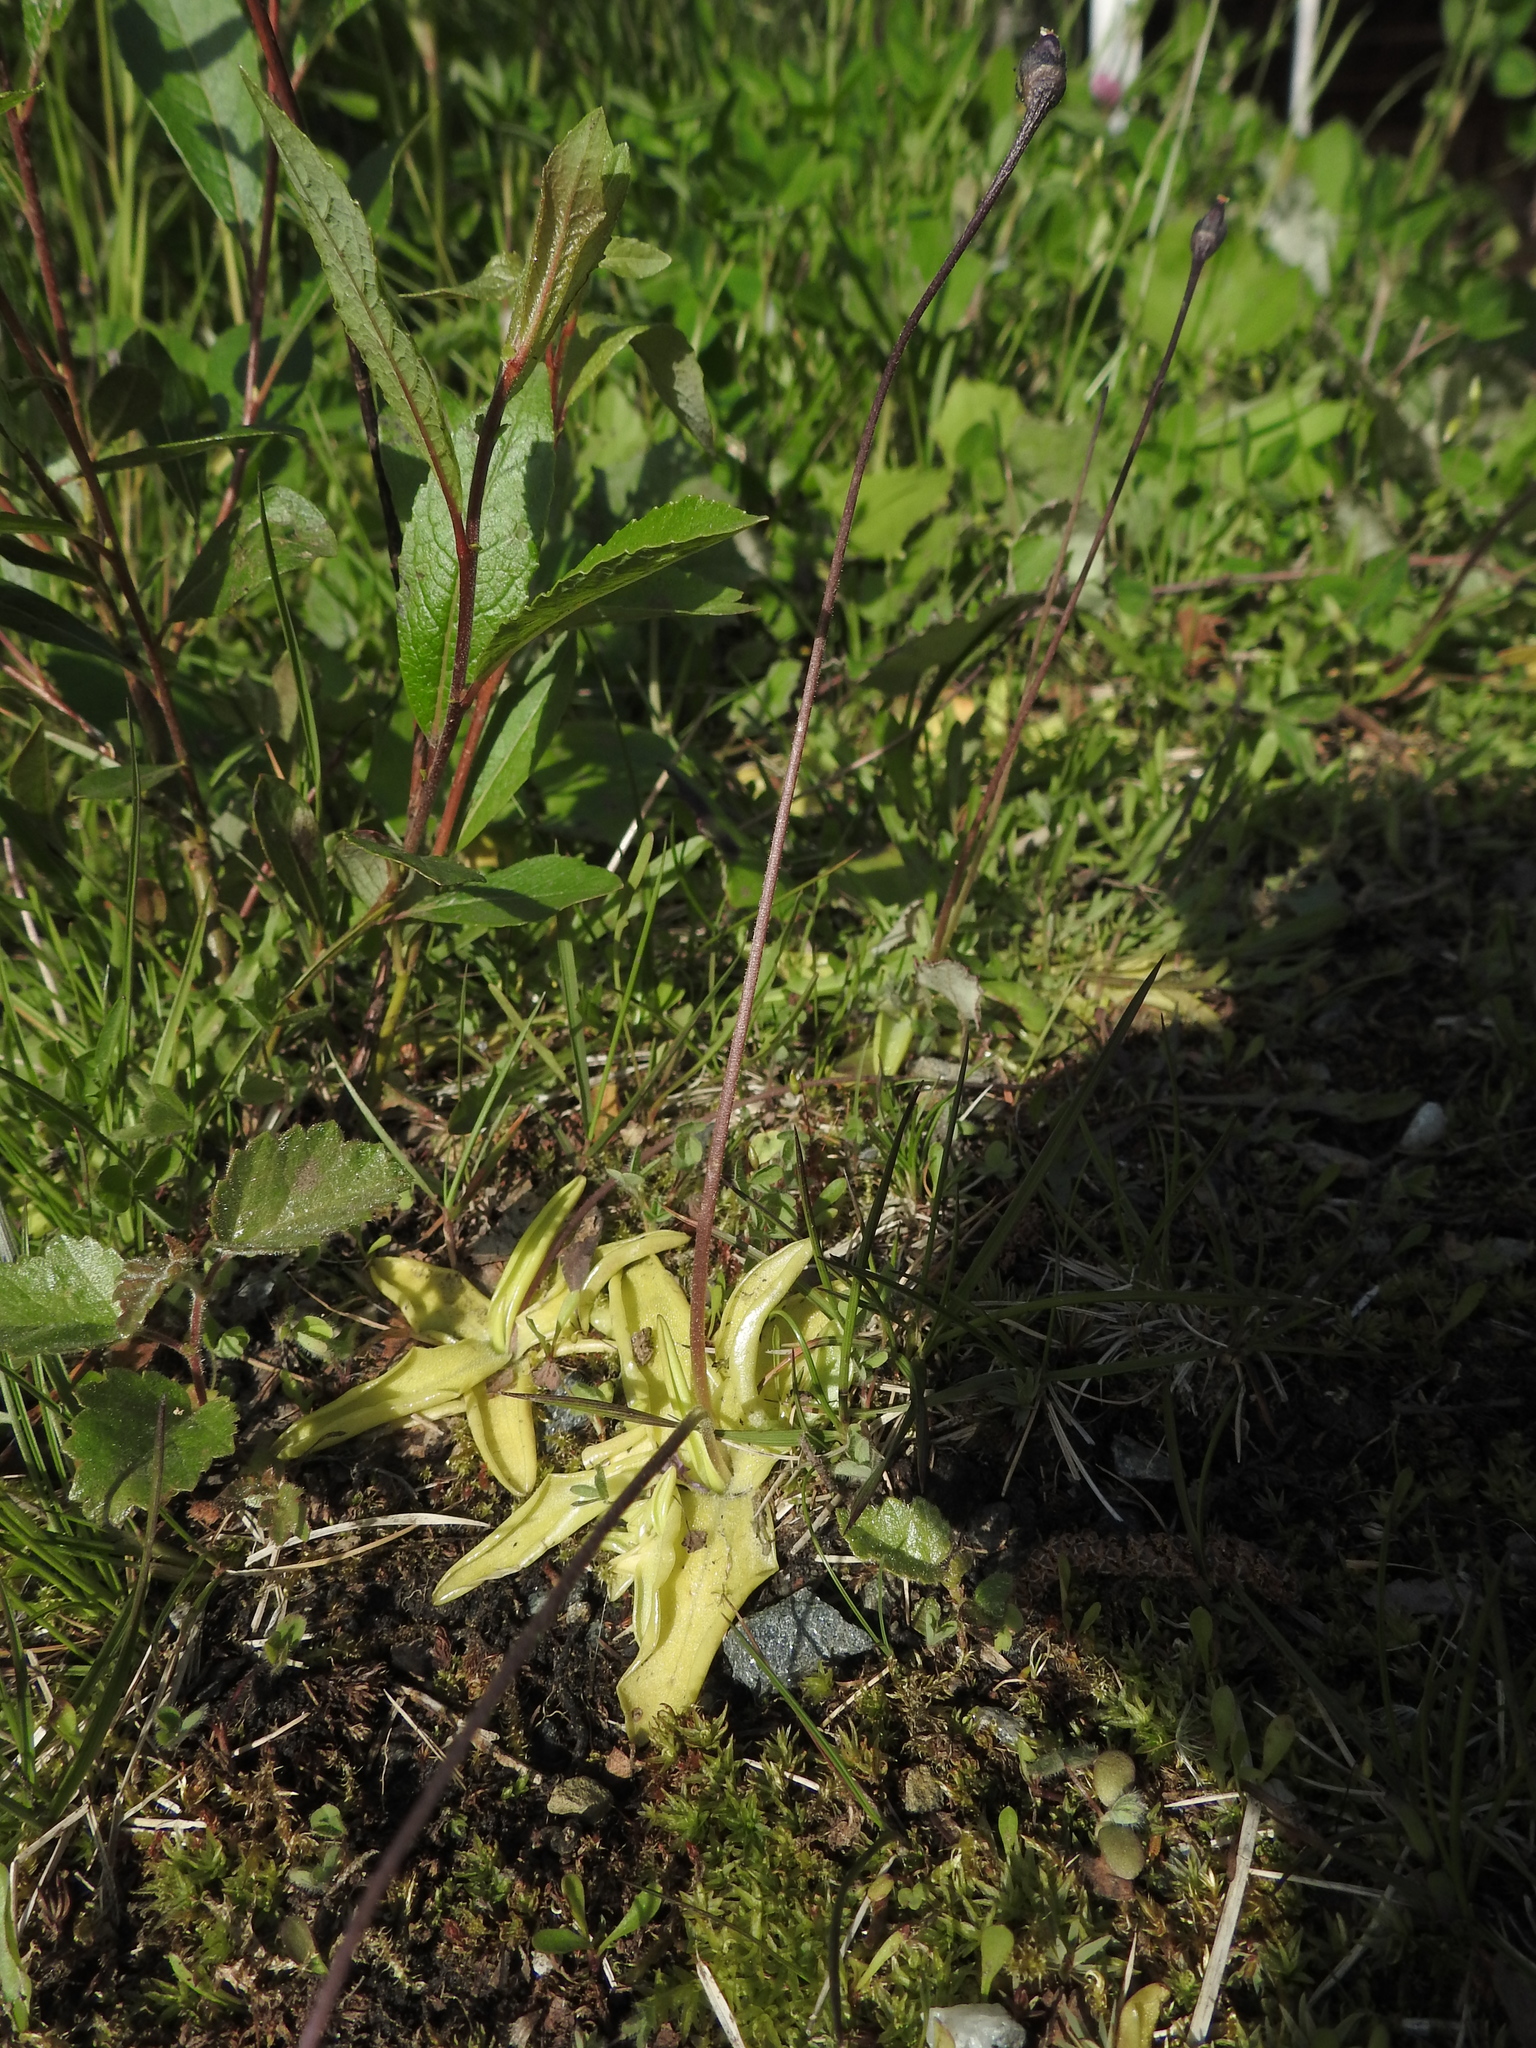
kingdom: Plantae
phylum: Tracheophyta
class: Magnoliopsida
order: Lamiales
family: Lentibulariaceae
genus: Pinguicula
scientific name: Pinguicula vulgaris
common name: Common butterwort
